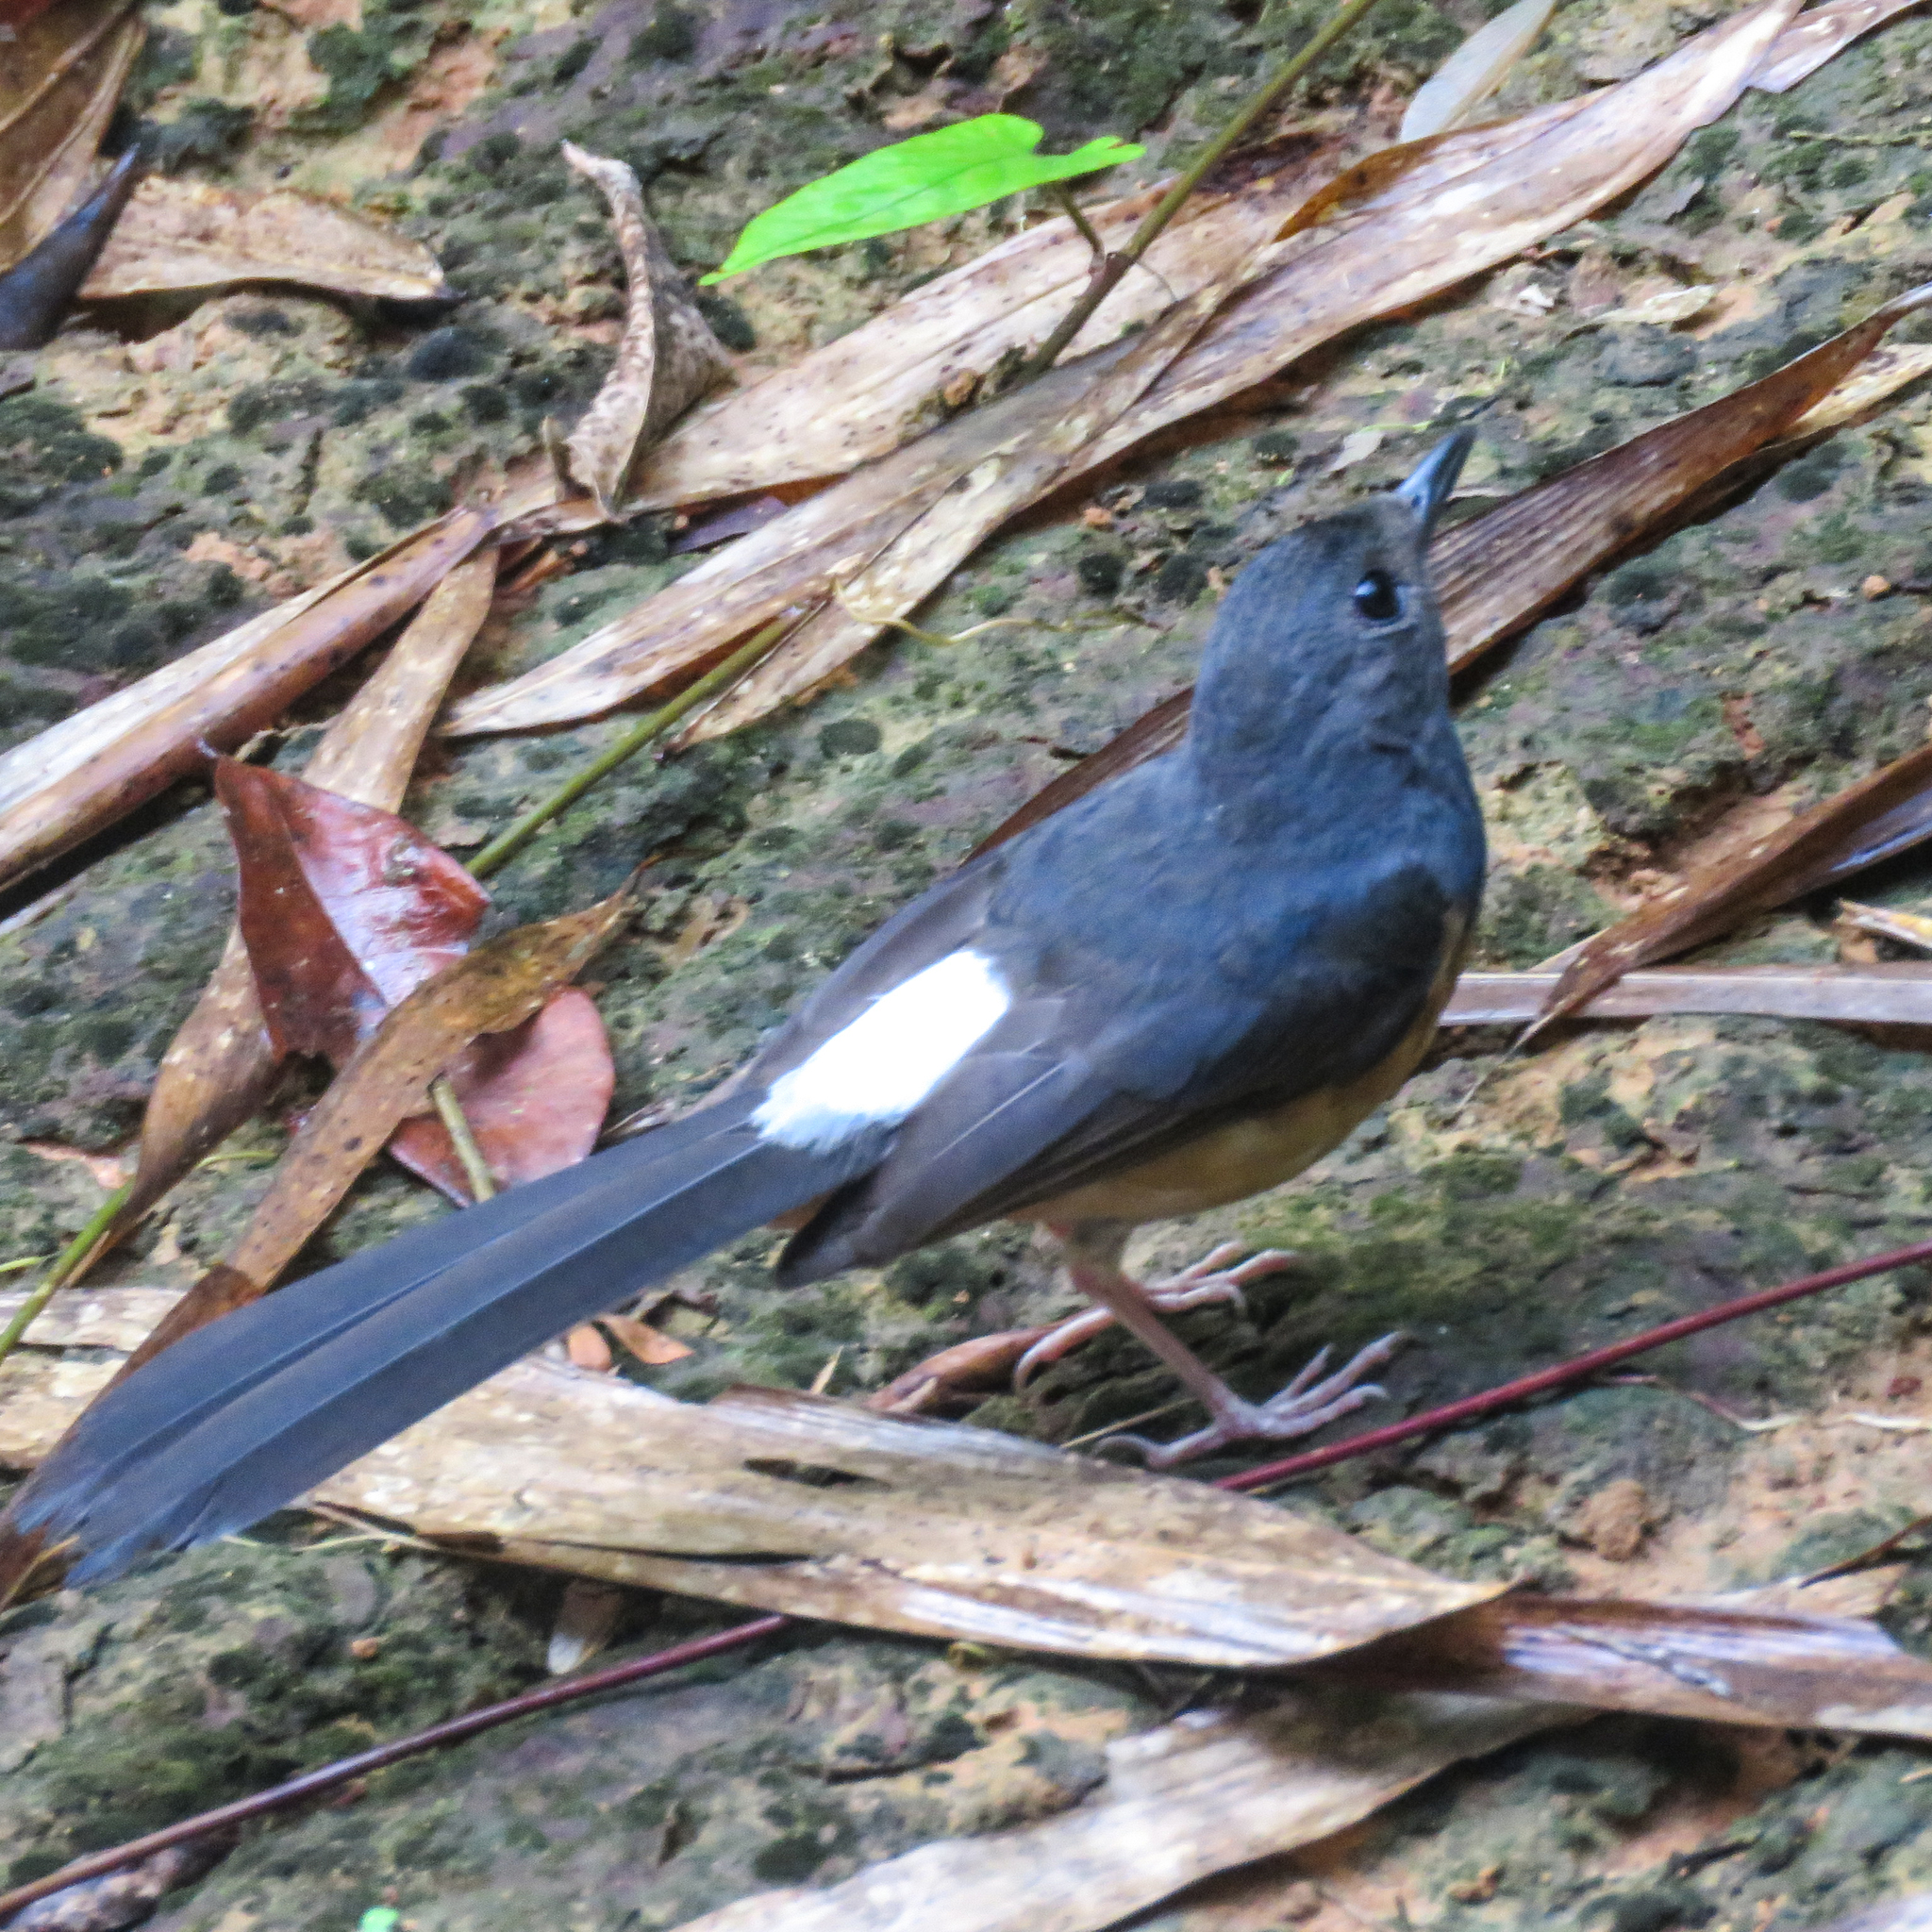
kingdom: Animalia
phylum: Chordata
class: Aves
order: Passeriformes
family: Muscicapidae
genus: Copsychus
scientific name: Copsychus malabaricus
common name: White-rumped shama
